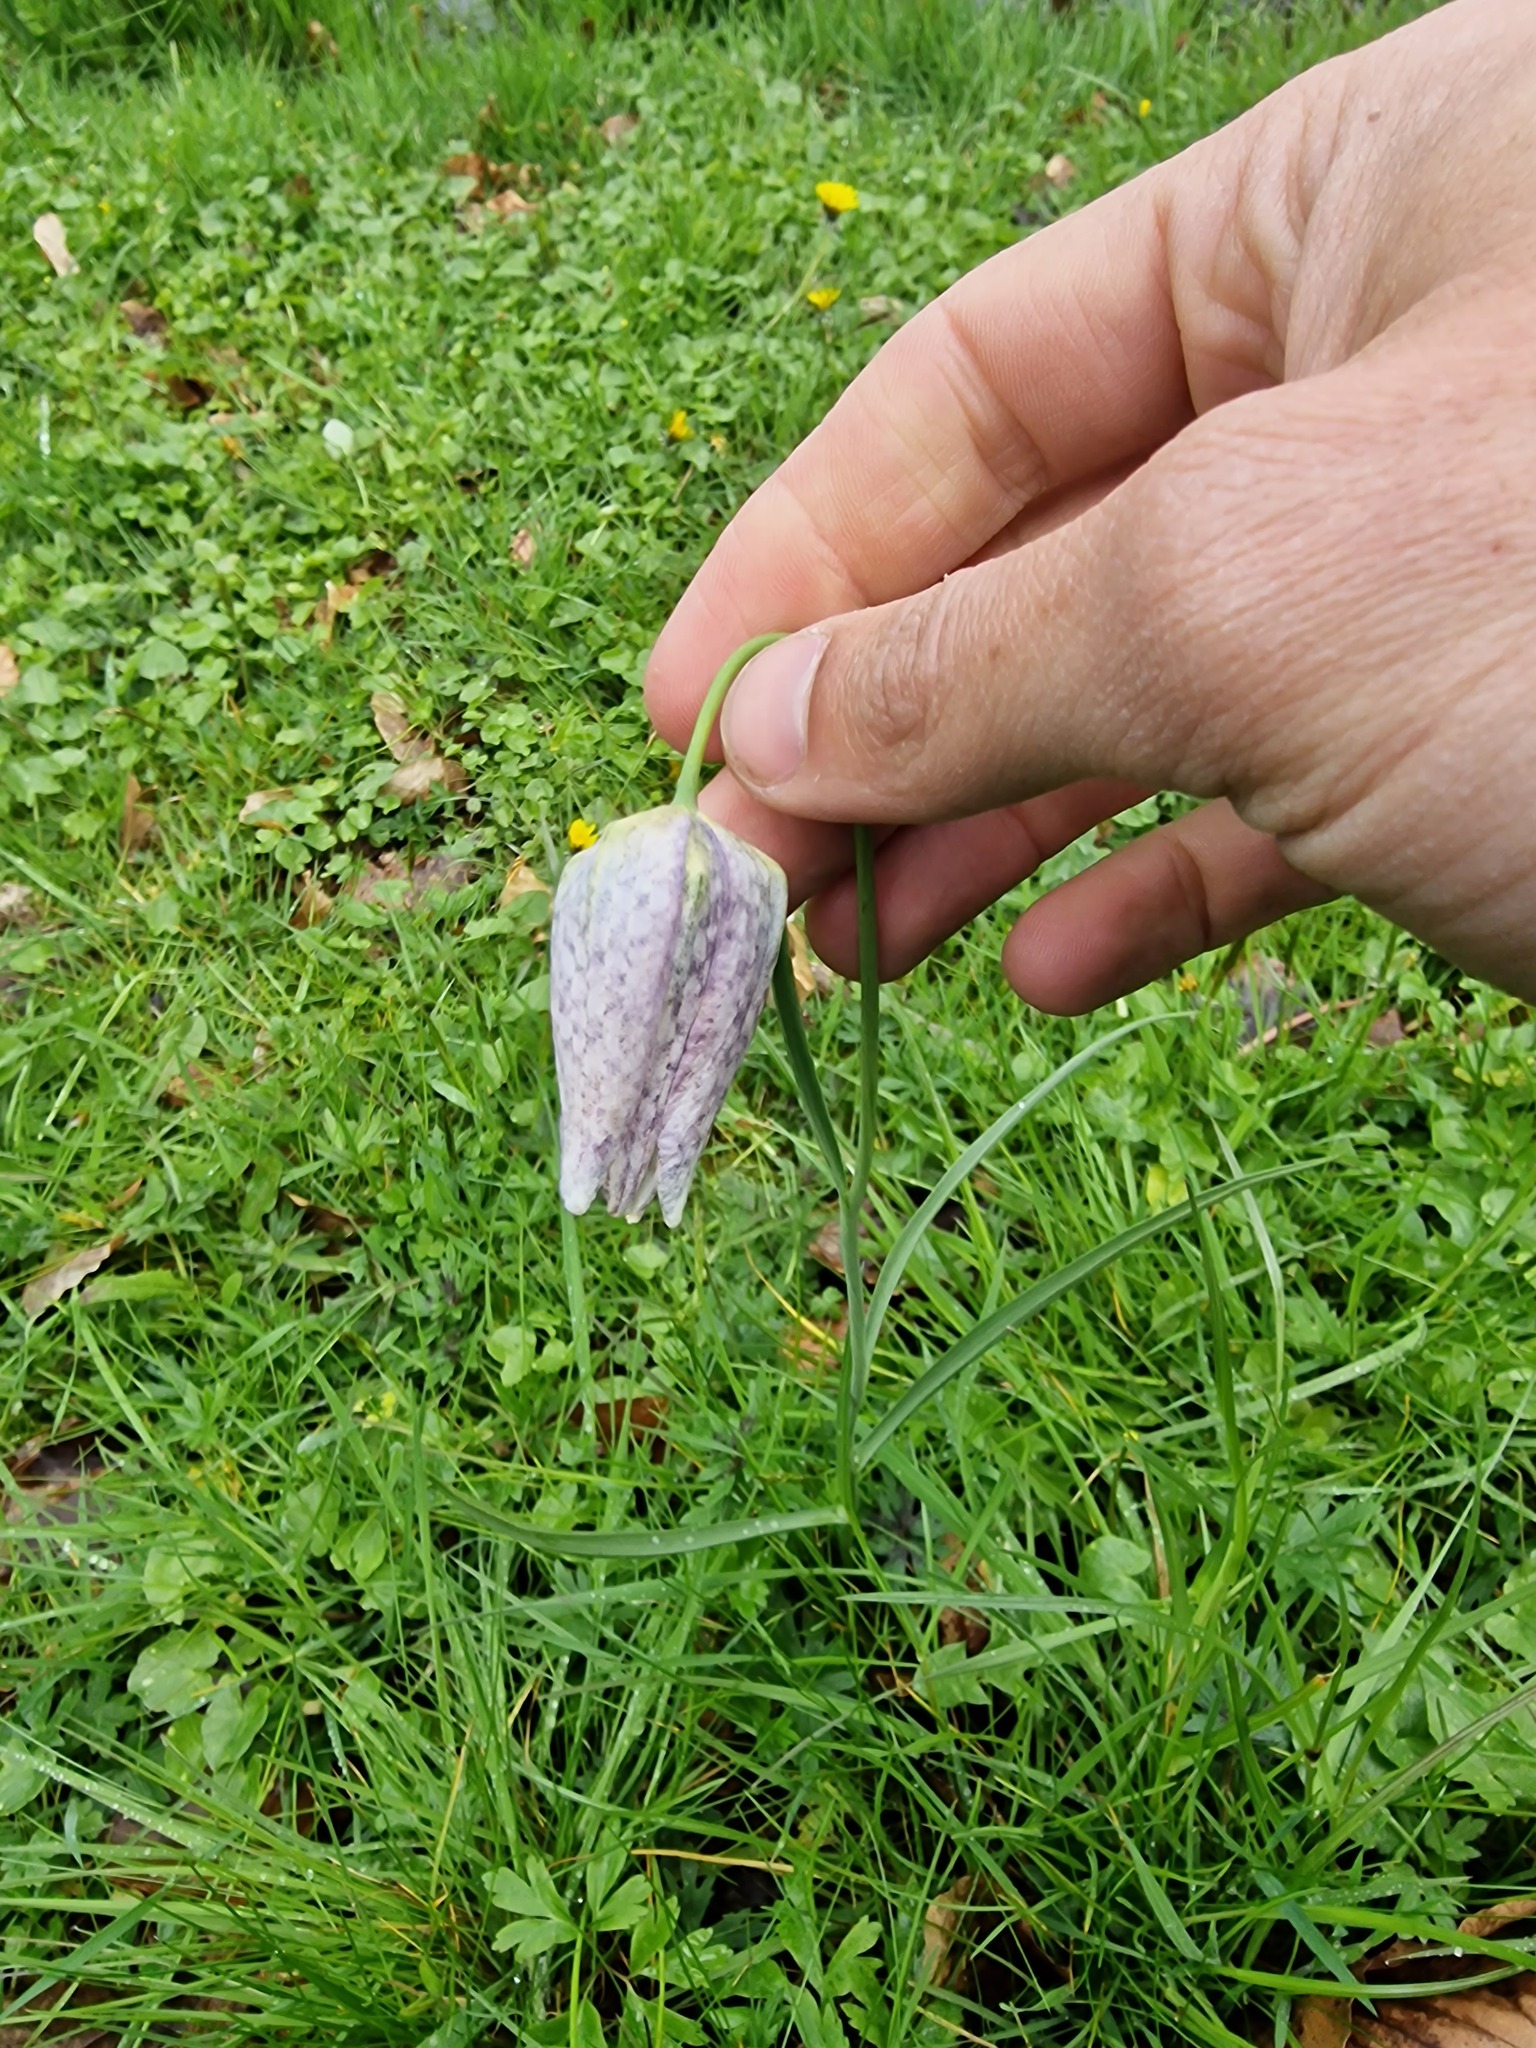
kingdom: Plantae
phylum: Tracheophyta
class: Liliopsida
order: Liliales
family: Liliaceae
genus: Fritillaria
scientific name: Fritillaria meleagris
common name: Fritillary
